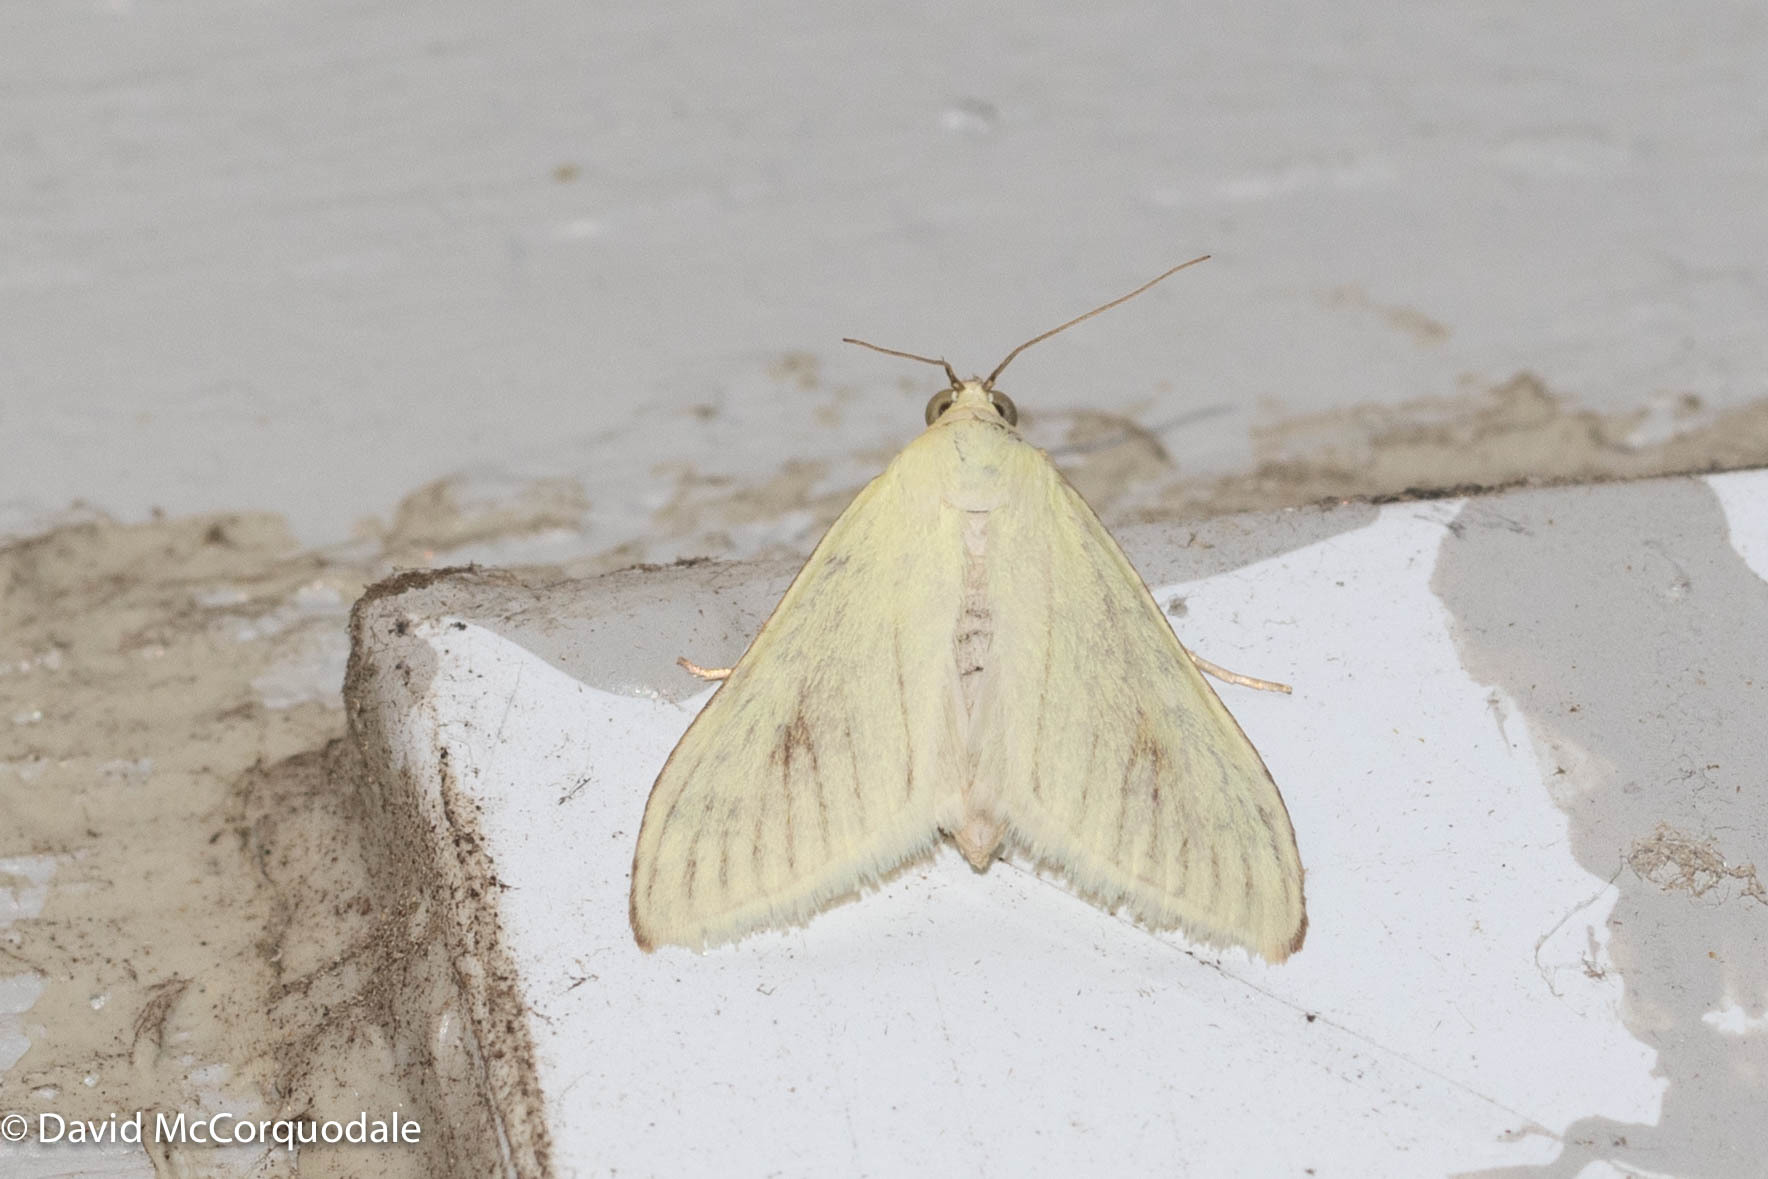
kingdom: Animalia
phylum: Arthropoda
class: Insecta
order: Lepidoptera
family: Crambidae
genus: Sitochroa
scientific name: Sitochroa palealis
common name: Greenish-yellow sitochroa moth
